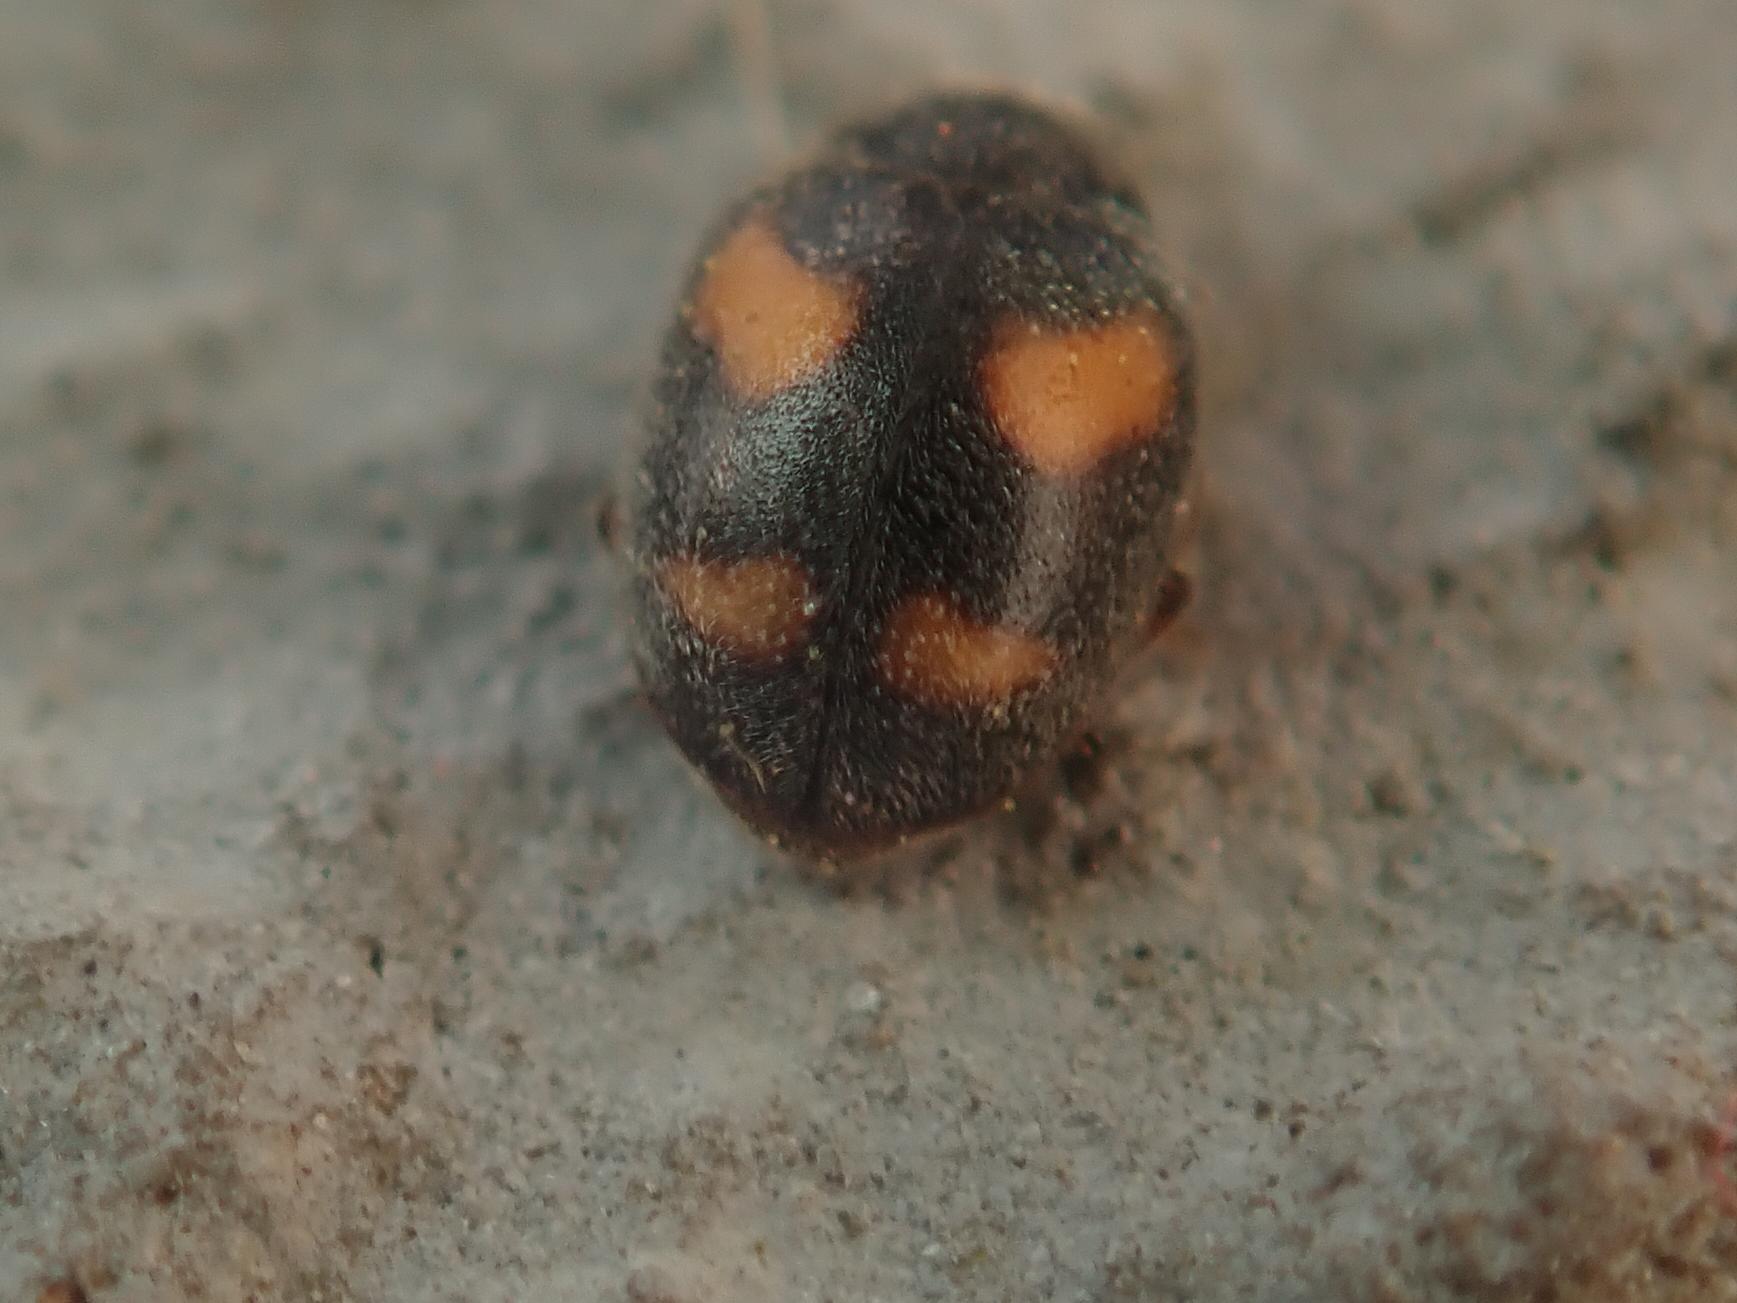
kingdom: Animalia
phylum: Arthropoda
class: Insecta
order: Coleoptera
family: Coccinellidae
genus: Nephus
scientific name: Nephus quadrimaculatus
